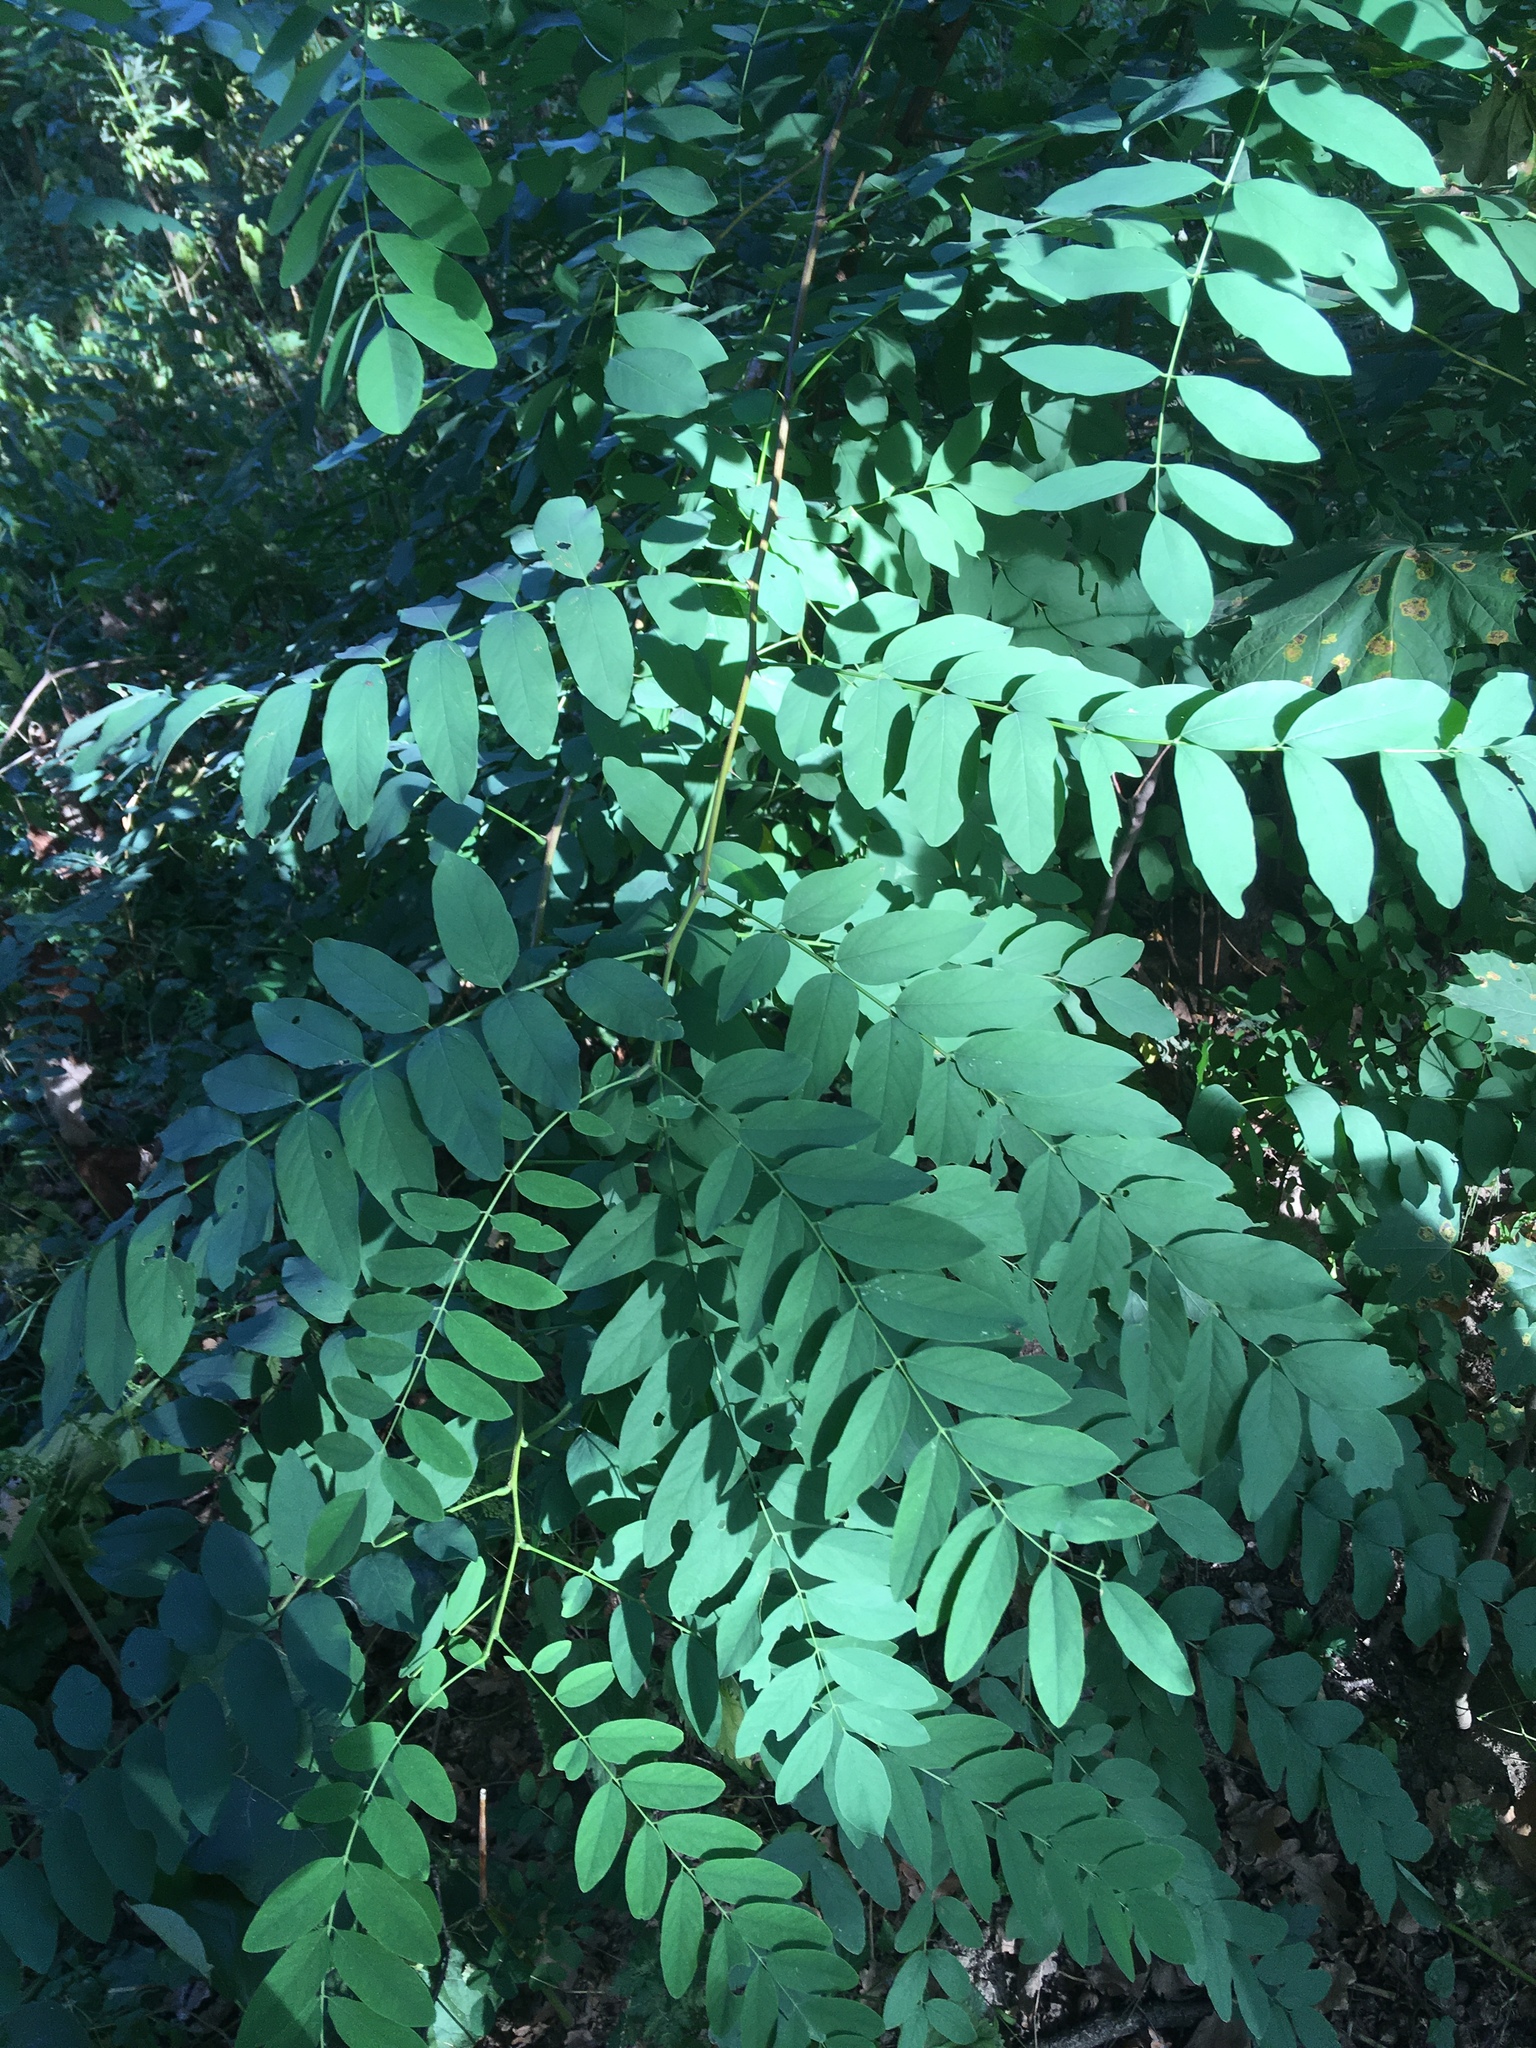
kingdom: Plantae
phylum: Tracheophyta
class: Magnoliopsida
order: Fabales
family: Fabaceae
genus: Robinia
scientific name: Robinia pseudoacacia
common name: Black locust
